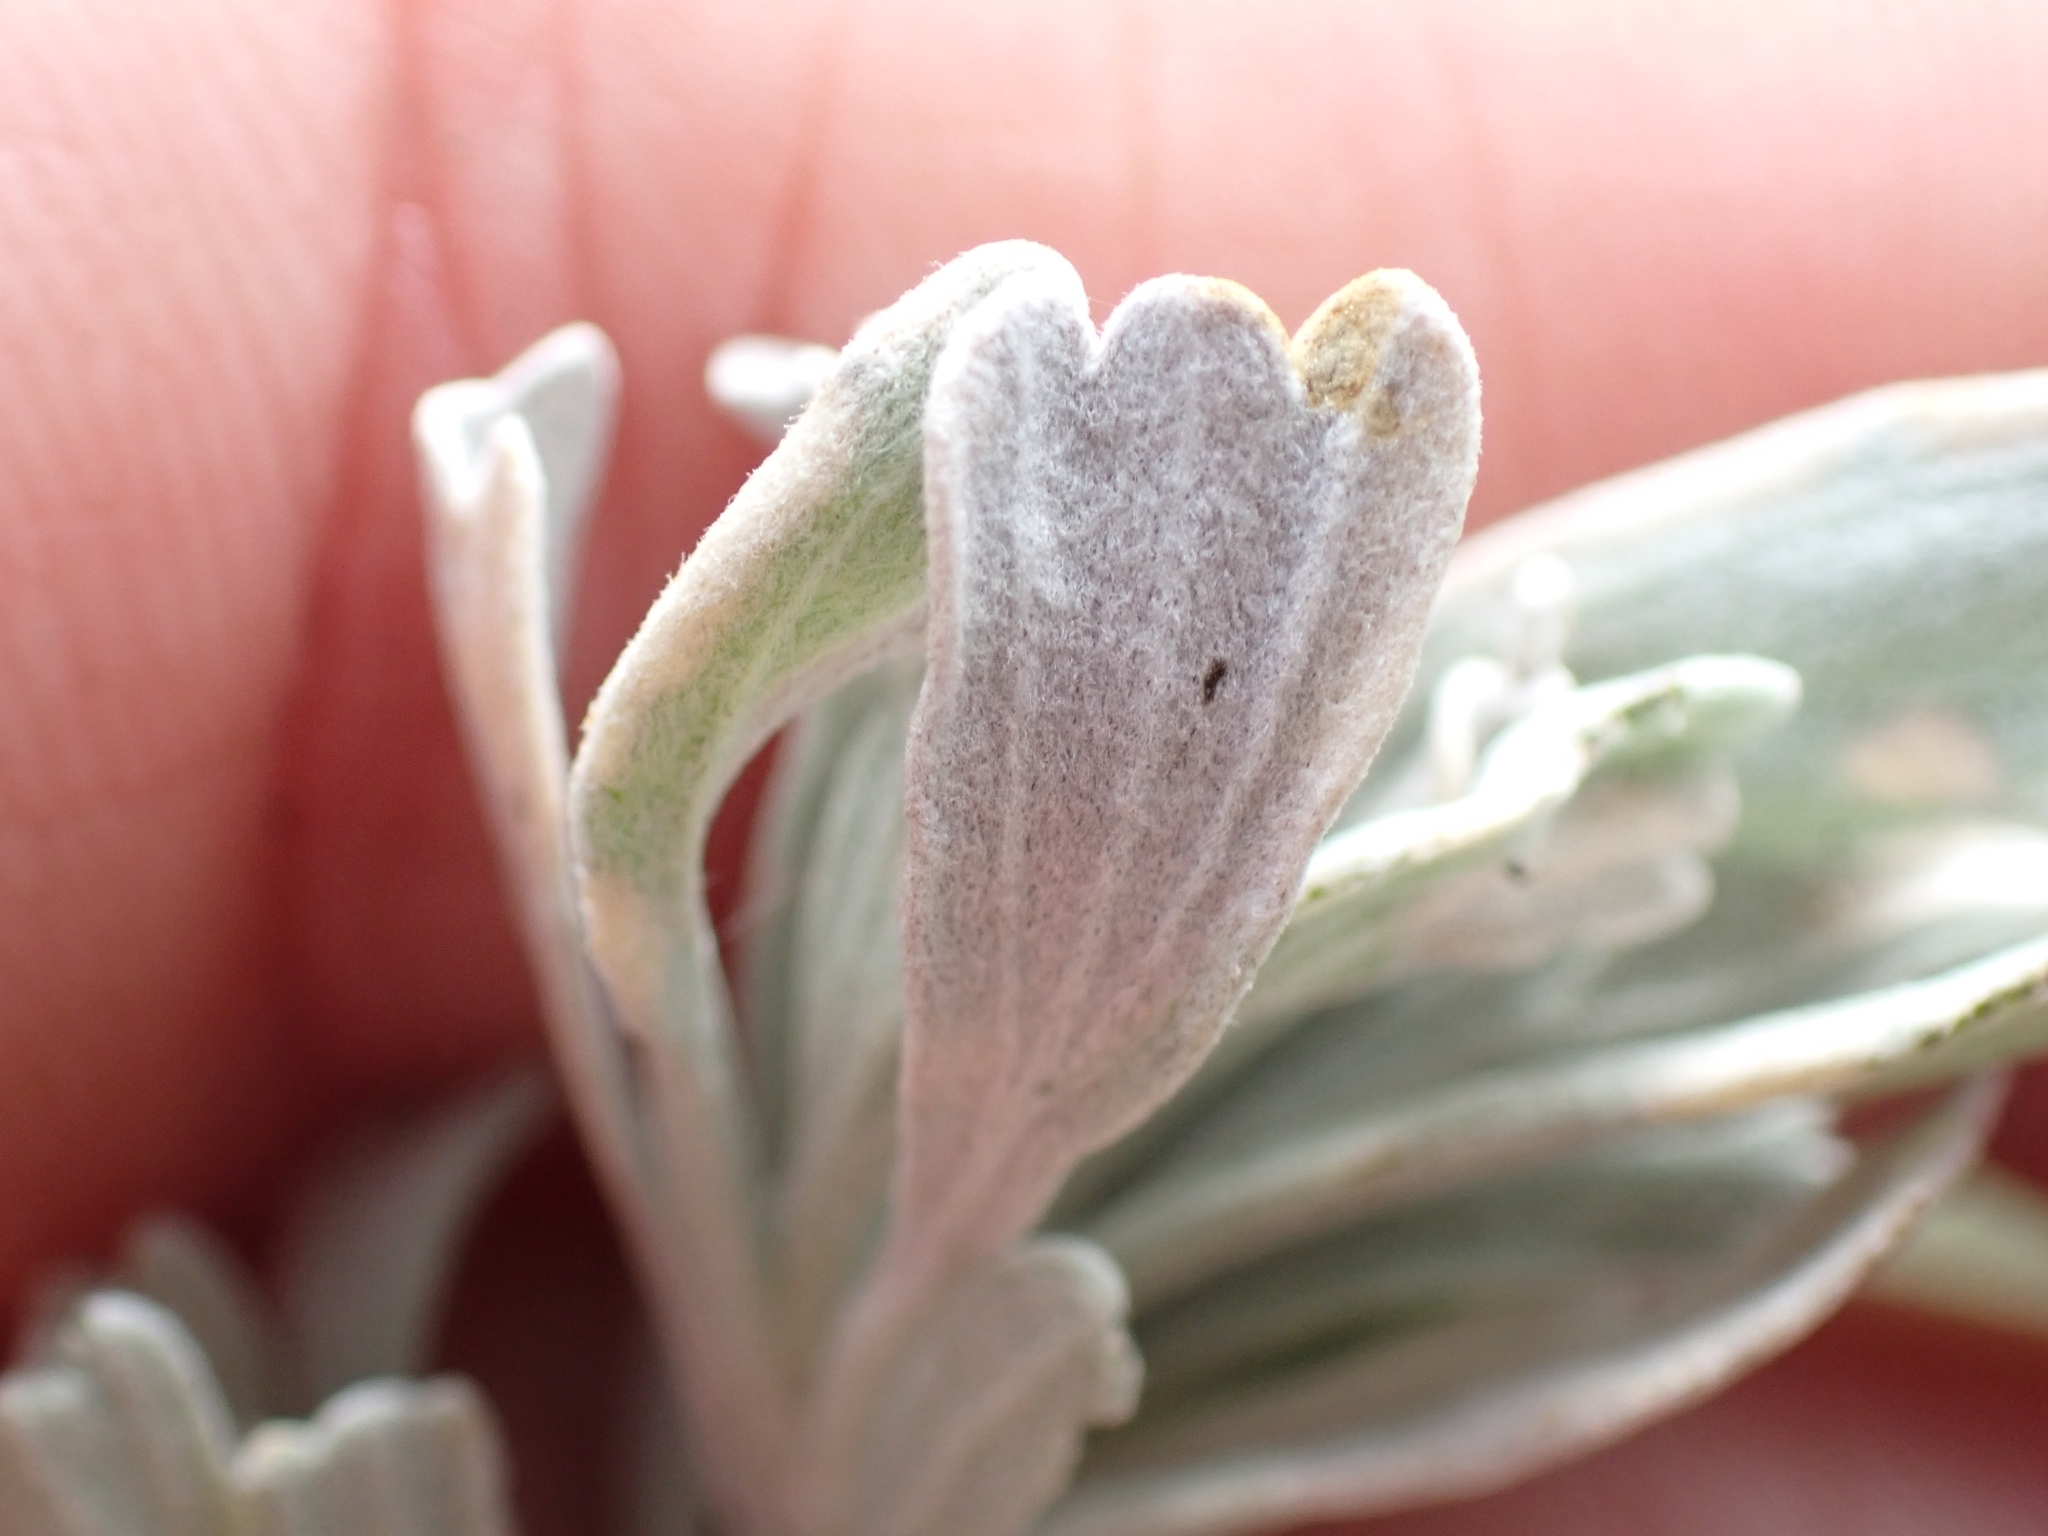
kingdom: Plantae
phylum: Tracheophyta
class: Magnoliopsida
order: Asterales
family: Asteraceae
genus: Artemisia
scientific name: Artemisia tridentata
